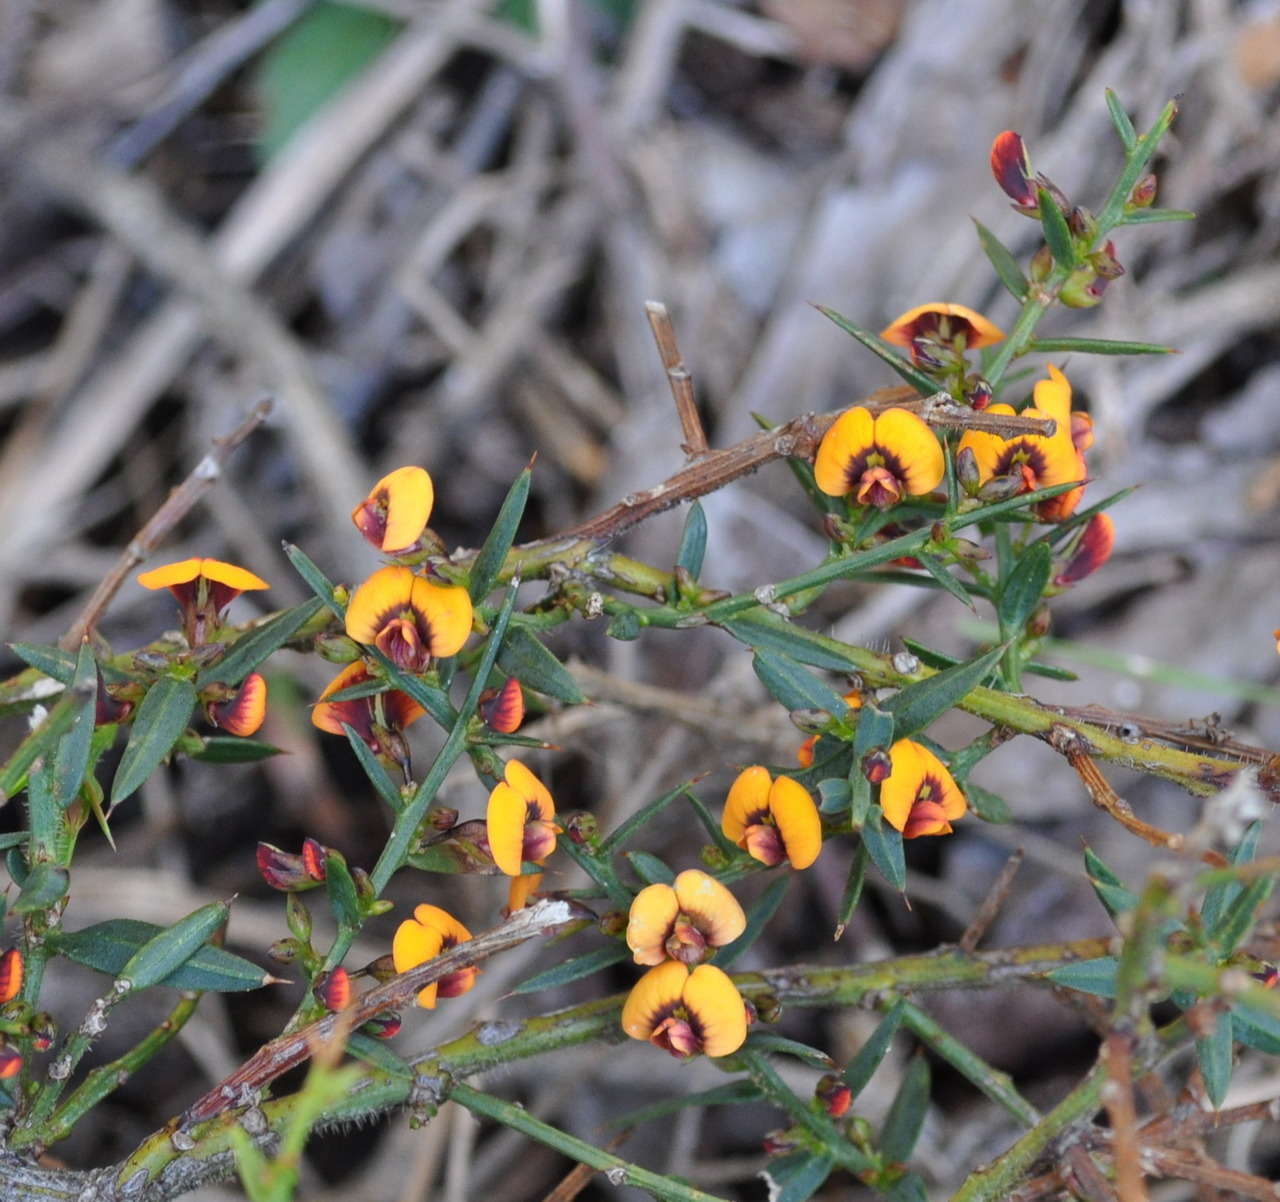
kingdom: Plantae
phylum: Tracheophyta
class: Magnoliopsida
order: Fabales
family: Fabaceae
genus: Daviesia
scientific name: Daviesia ulicifolia
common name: Gorse bitter-pea
